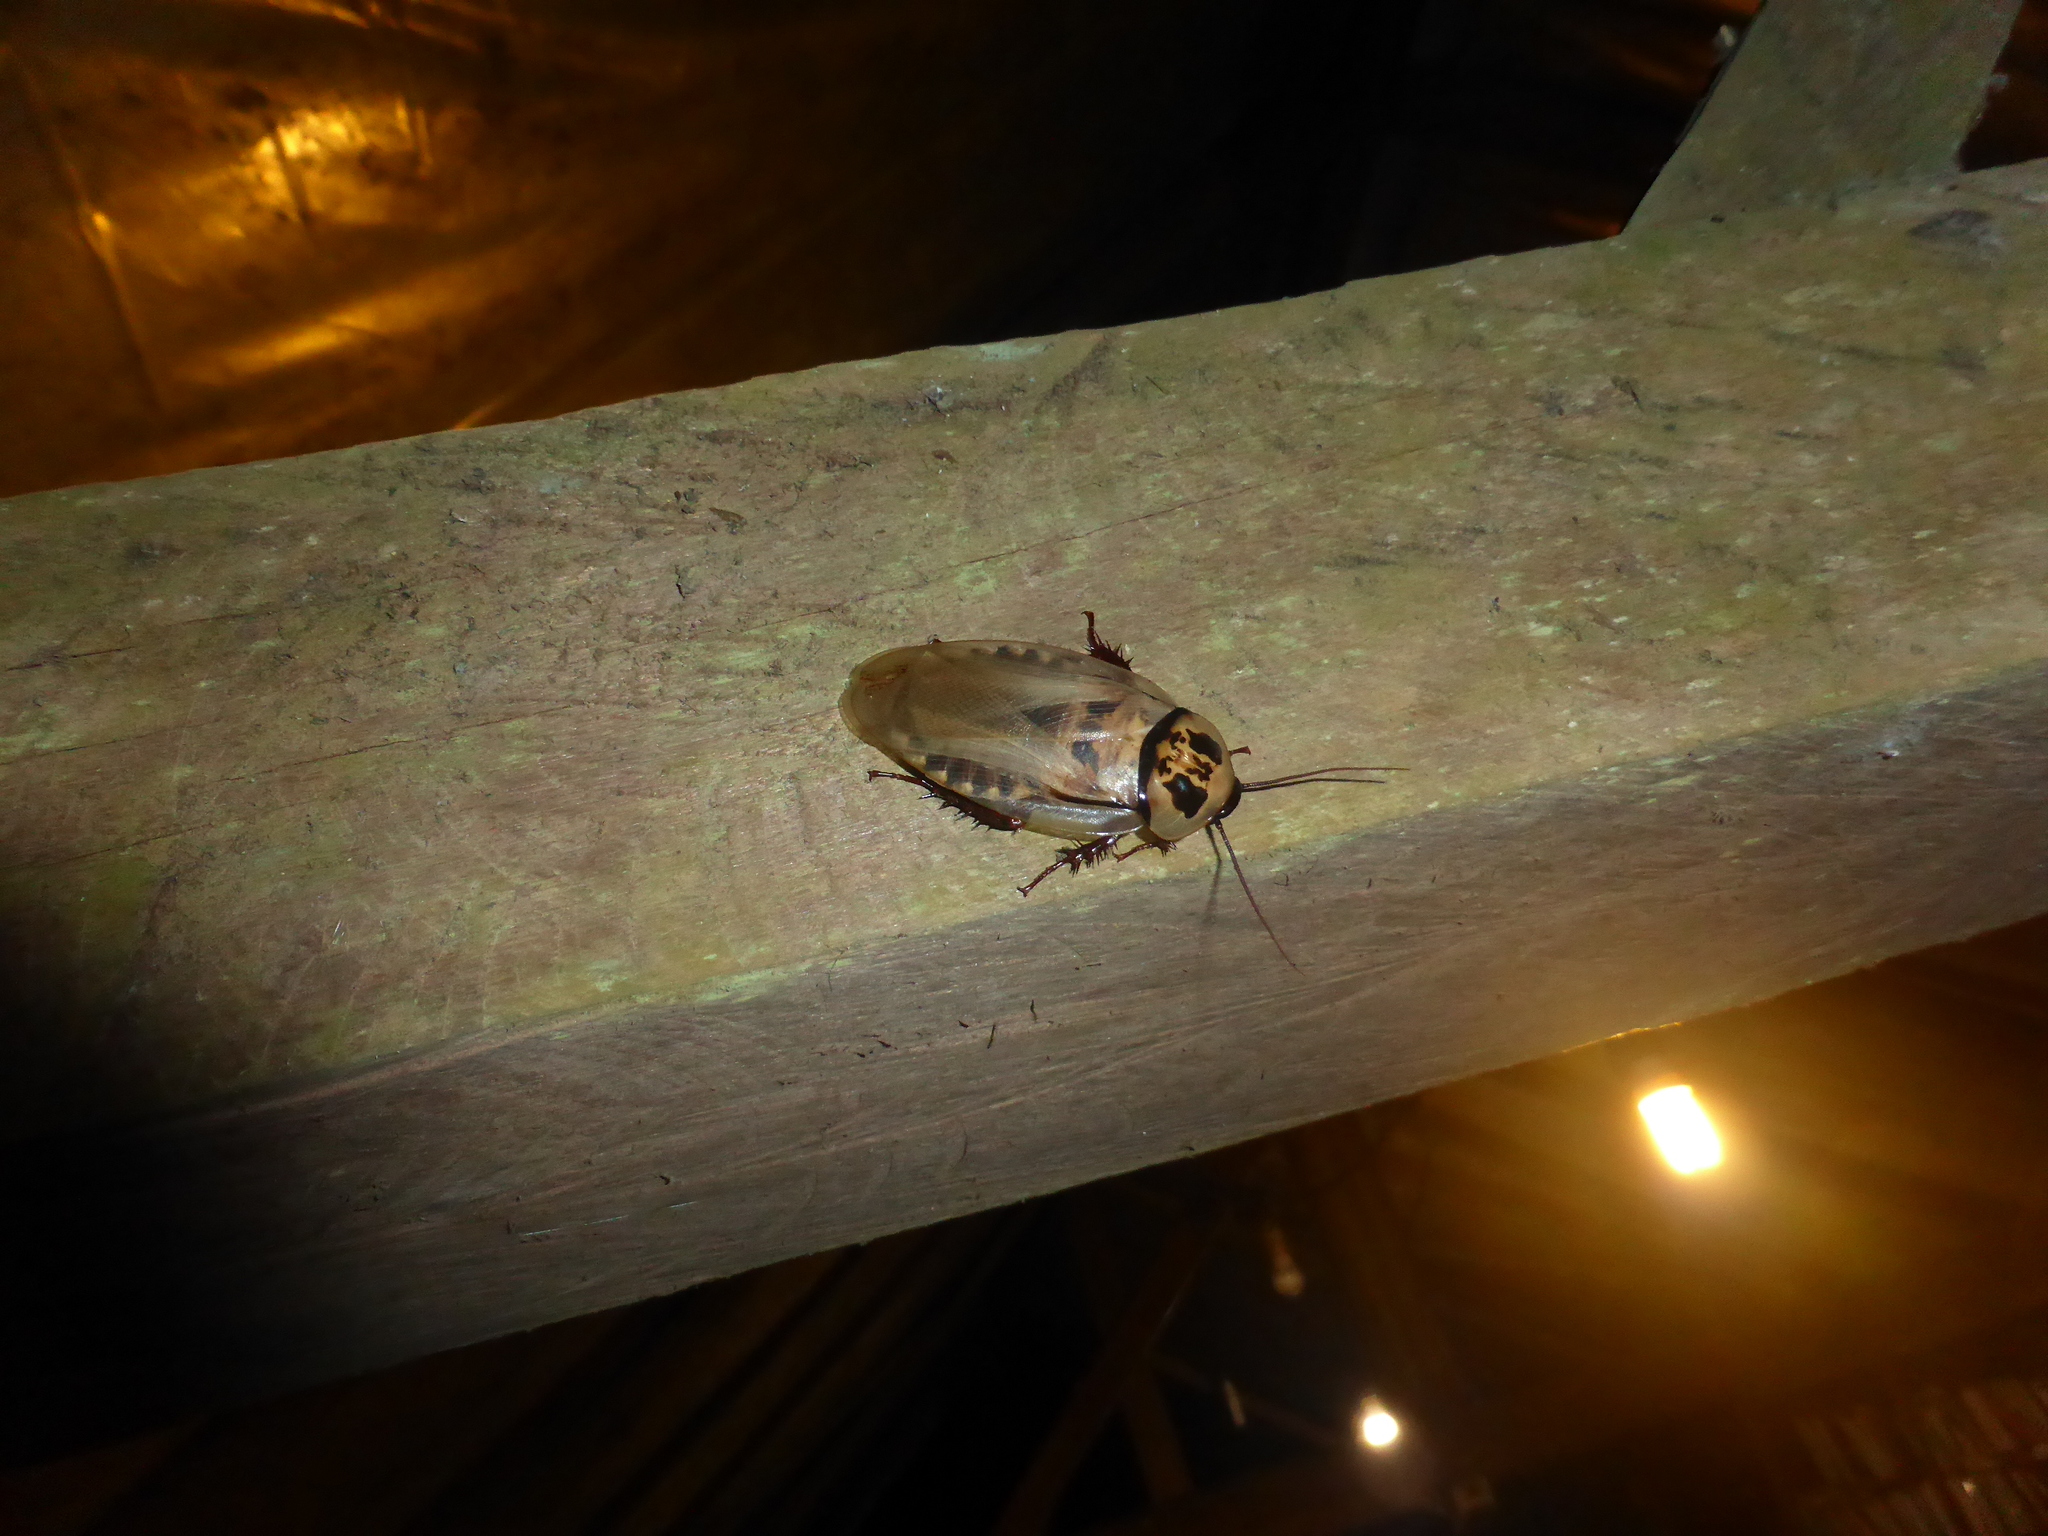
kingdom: Animalia
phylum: Arthropoda
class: Insecta
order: Blattodea
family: Blaberidae
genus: Eublaberus
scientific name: Eublaberus distanti
